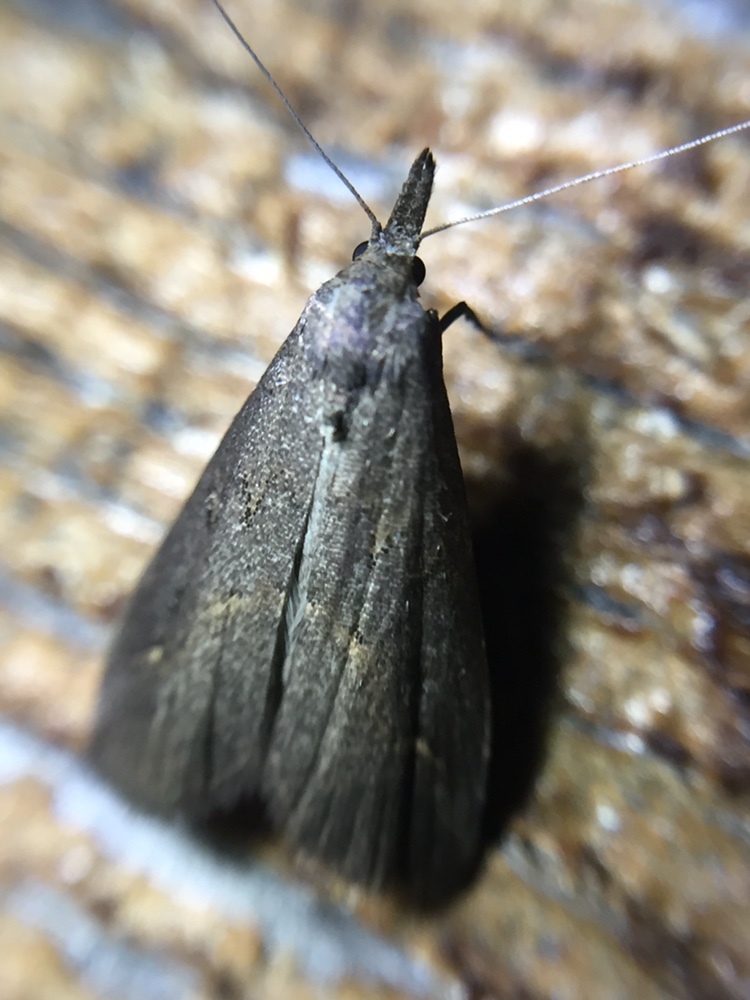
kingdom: Animalia
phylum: Arthropoda
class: Insecta
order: Lepidoptera
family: Erebidae
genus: Schrankia
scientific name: Schrankia costaestrigalis
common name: Pinion-streaked snout
